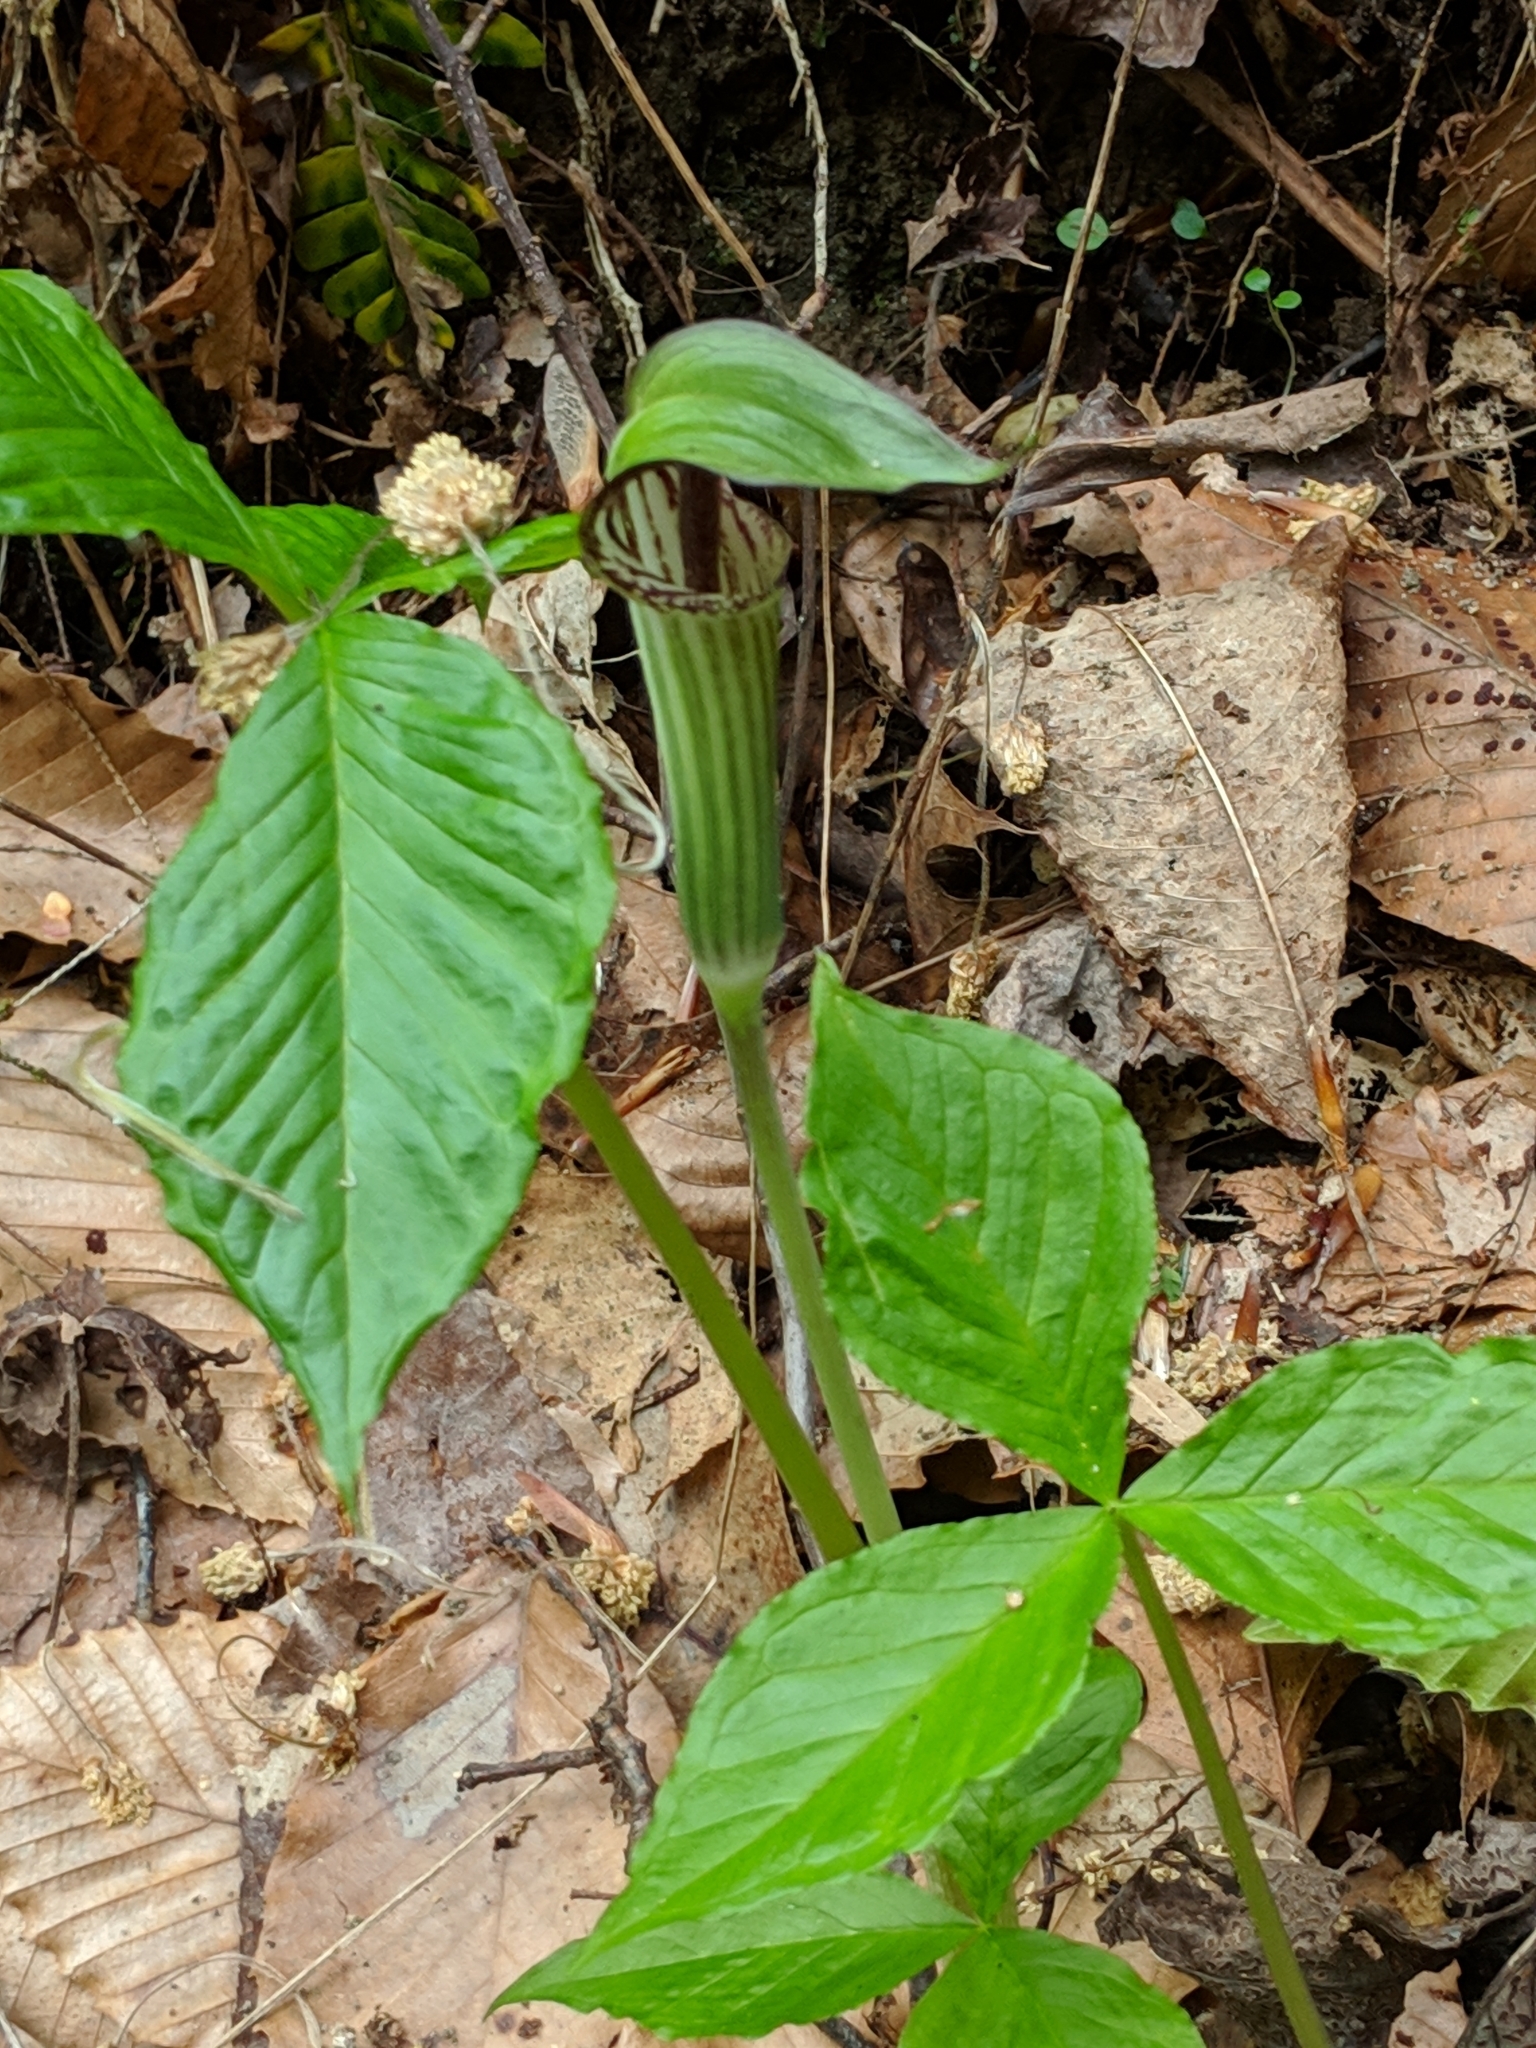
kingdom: Plantae
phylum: Tracheophyta
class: Liliopsida
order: Alismatales
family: Araceae
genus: Arisaema
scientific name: Arisaema triphyllum
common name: Jack-in-the-pulpit
